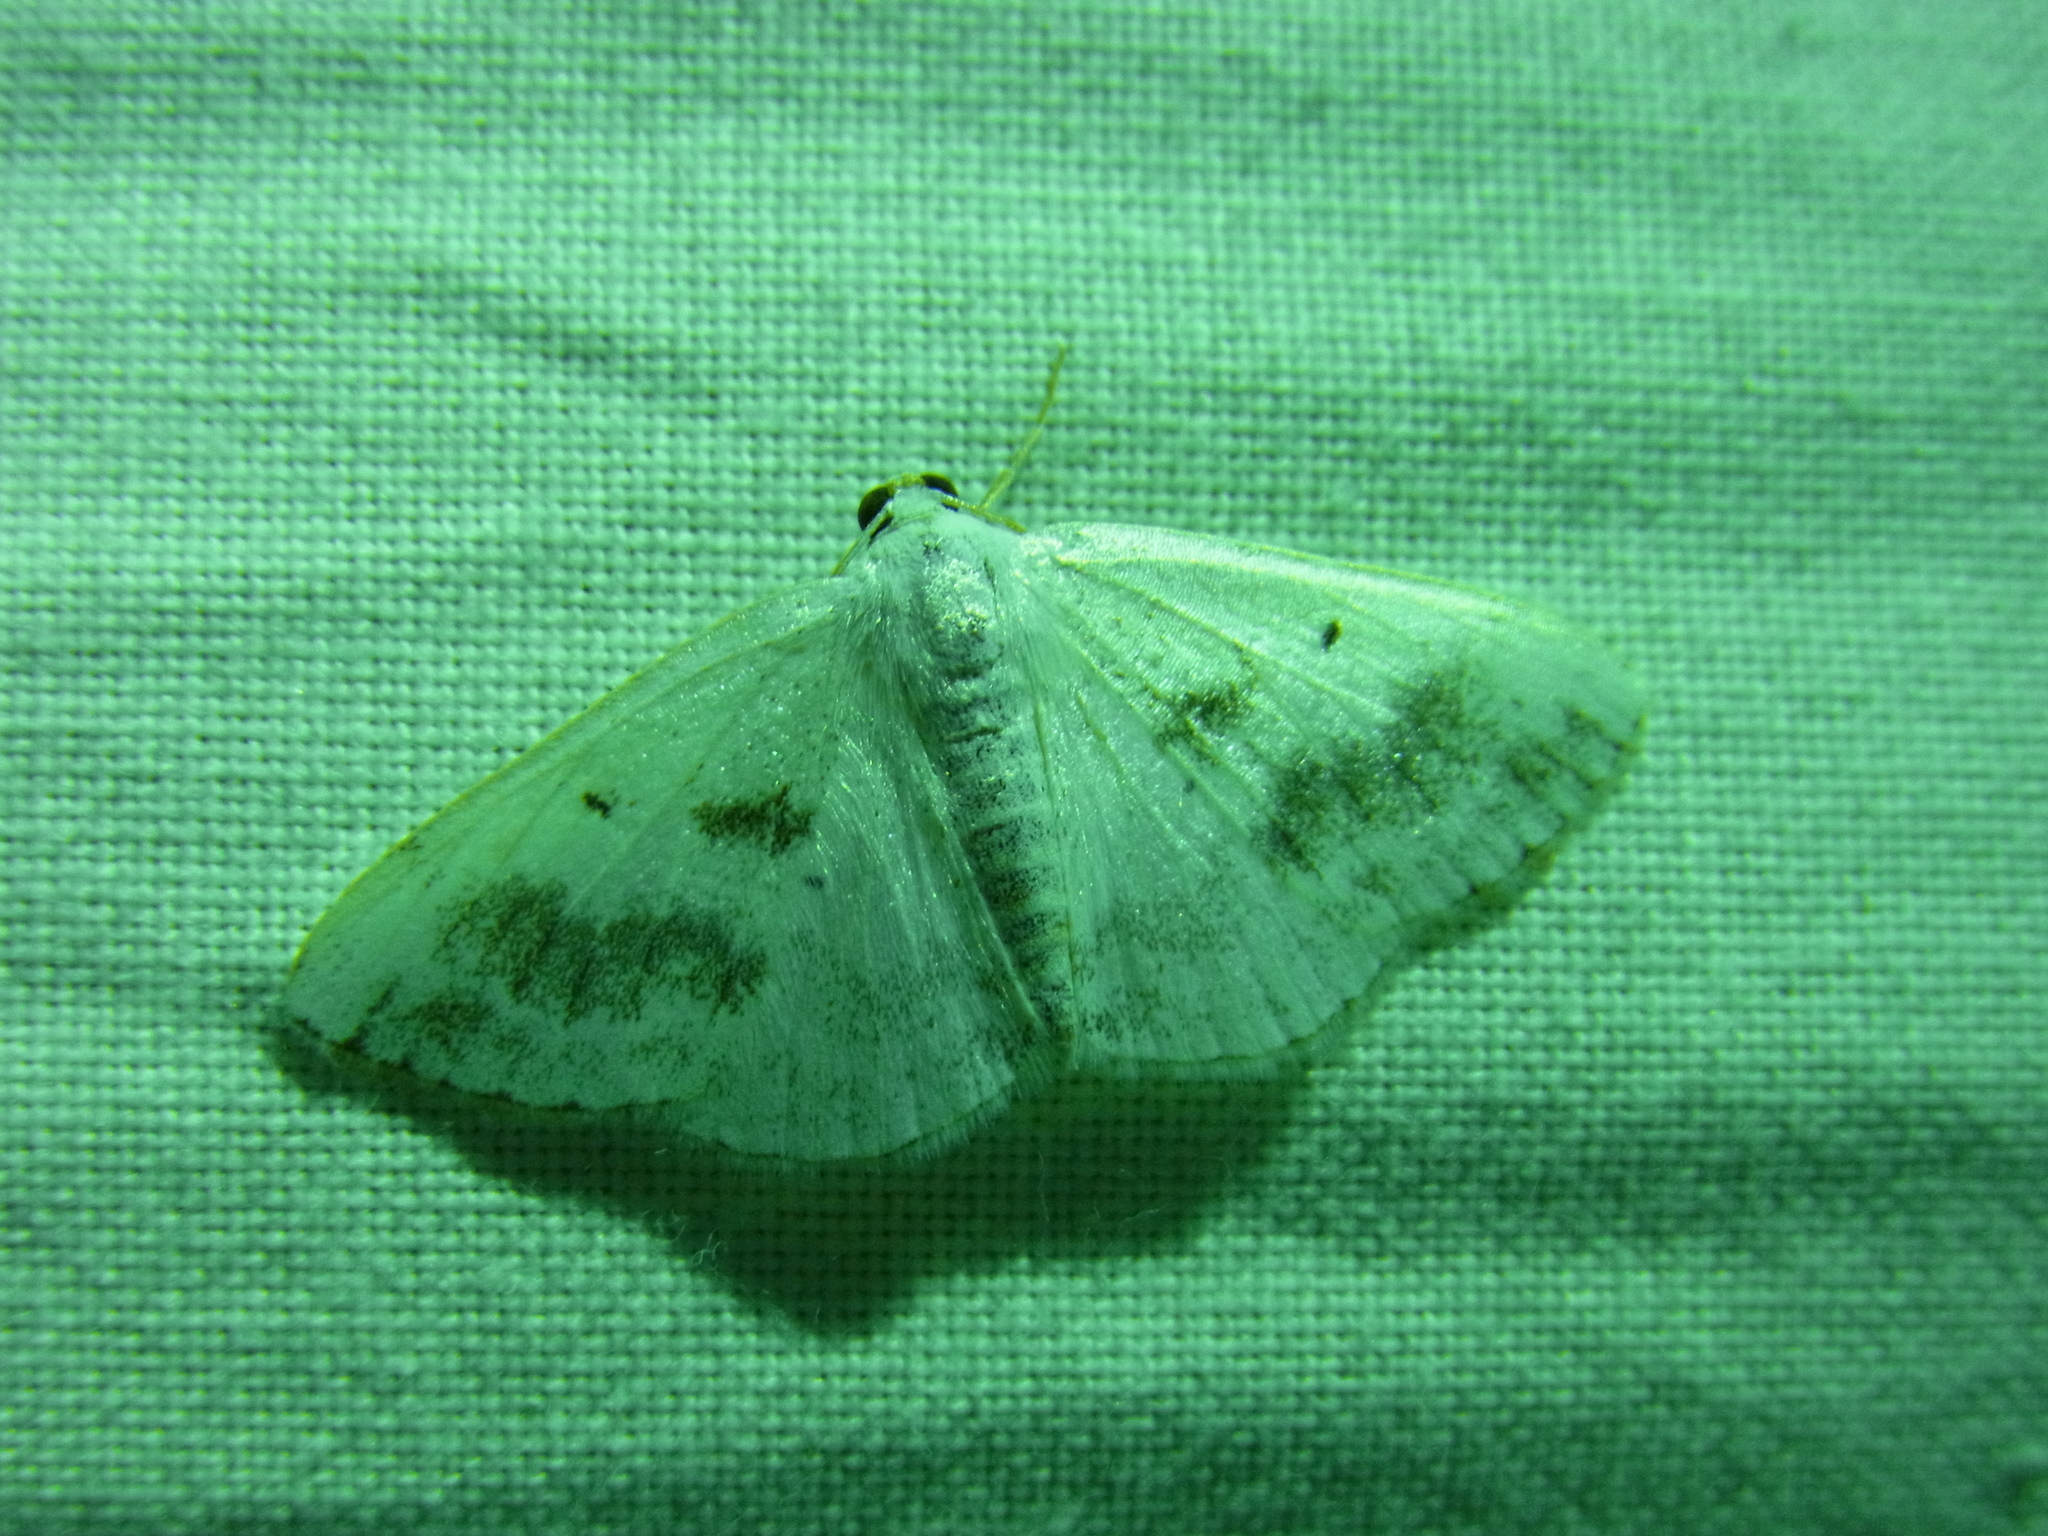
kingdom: Animalia
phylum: Arthropoda
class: Insecta
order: Lepidoptera
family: Geometridae
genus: Lomographa
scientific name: Lomographa temerata
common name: Clouded silver
